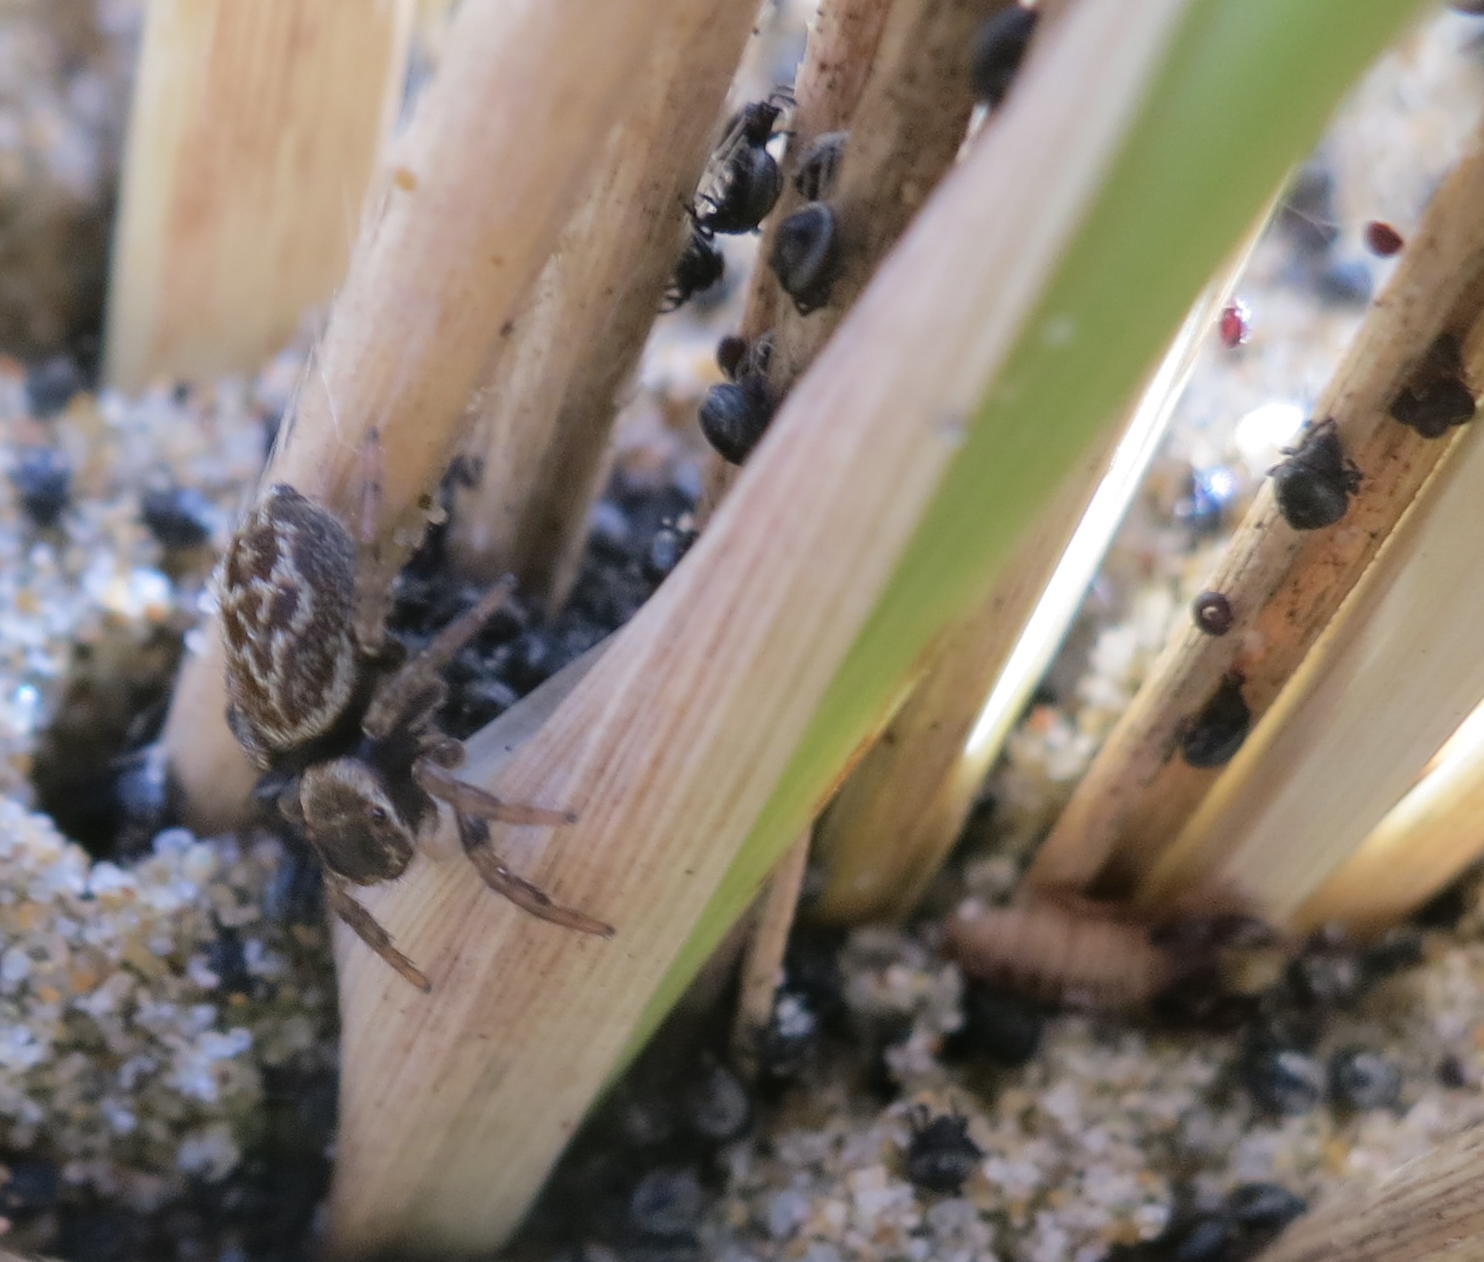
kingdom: Animalia
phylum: Arthropoda
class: Arachnida
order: Araneae
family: Salticidae
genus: Maratus
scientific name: Maratus griseus
